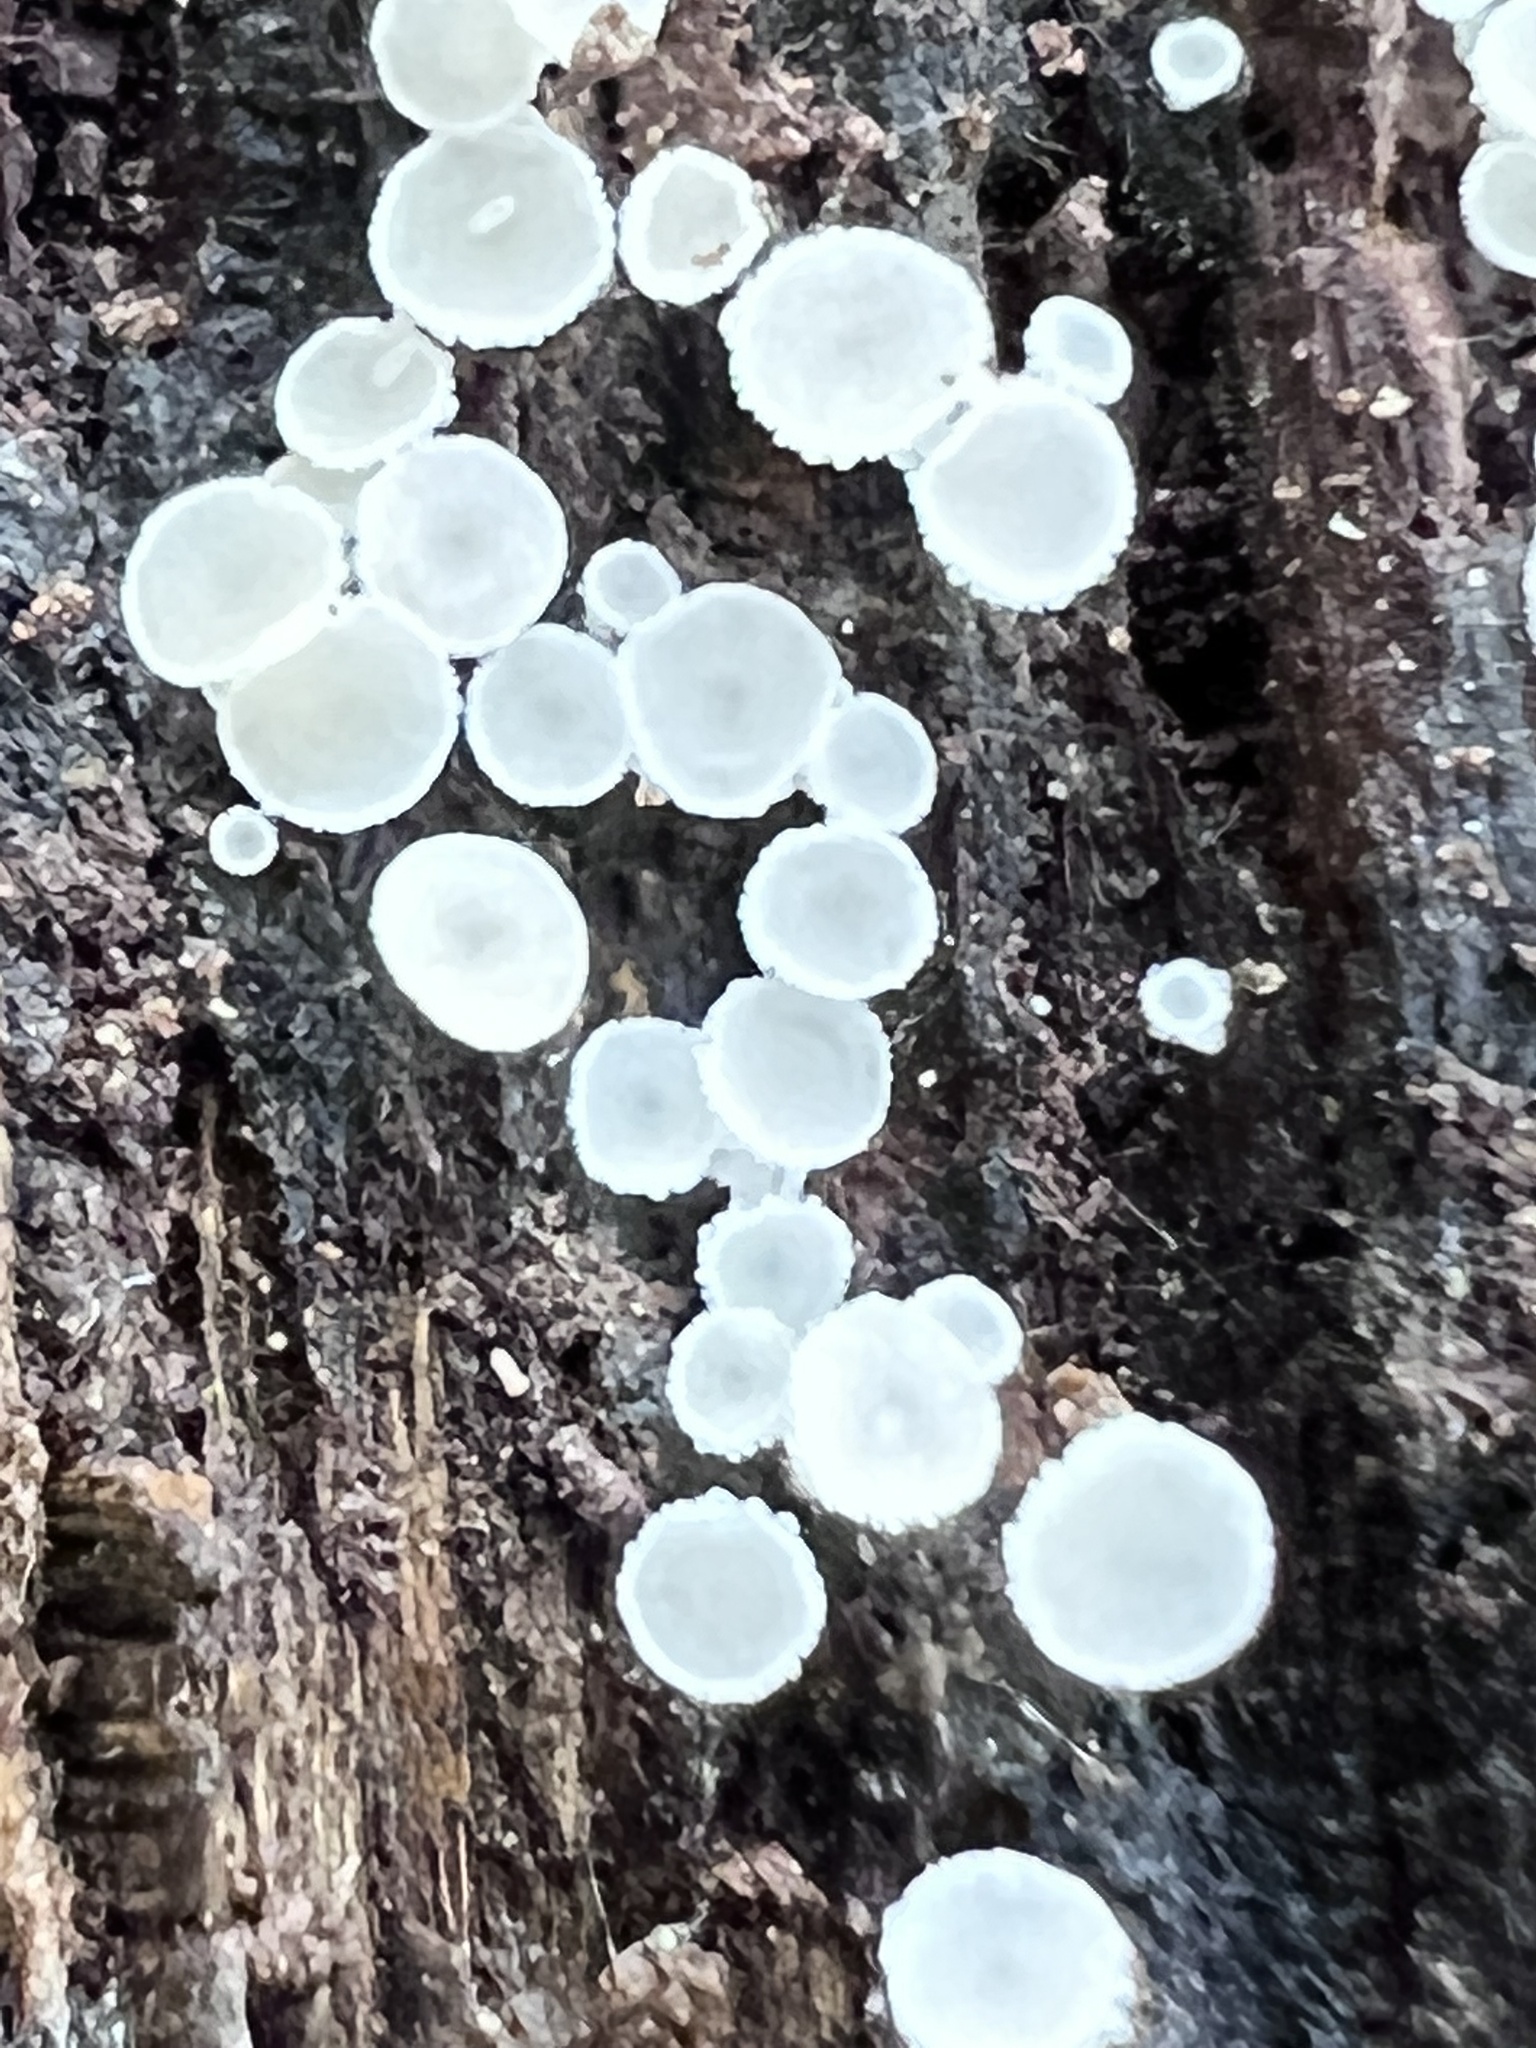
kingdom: Fungi
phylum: Ascomycota
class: Leotiomycetes
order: Helotiales
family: Lachnaceae
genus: Lachnum
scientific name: Lachnum virgineum
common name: Snowy disco
